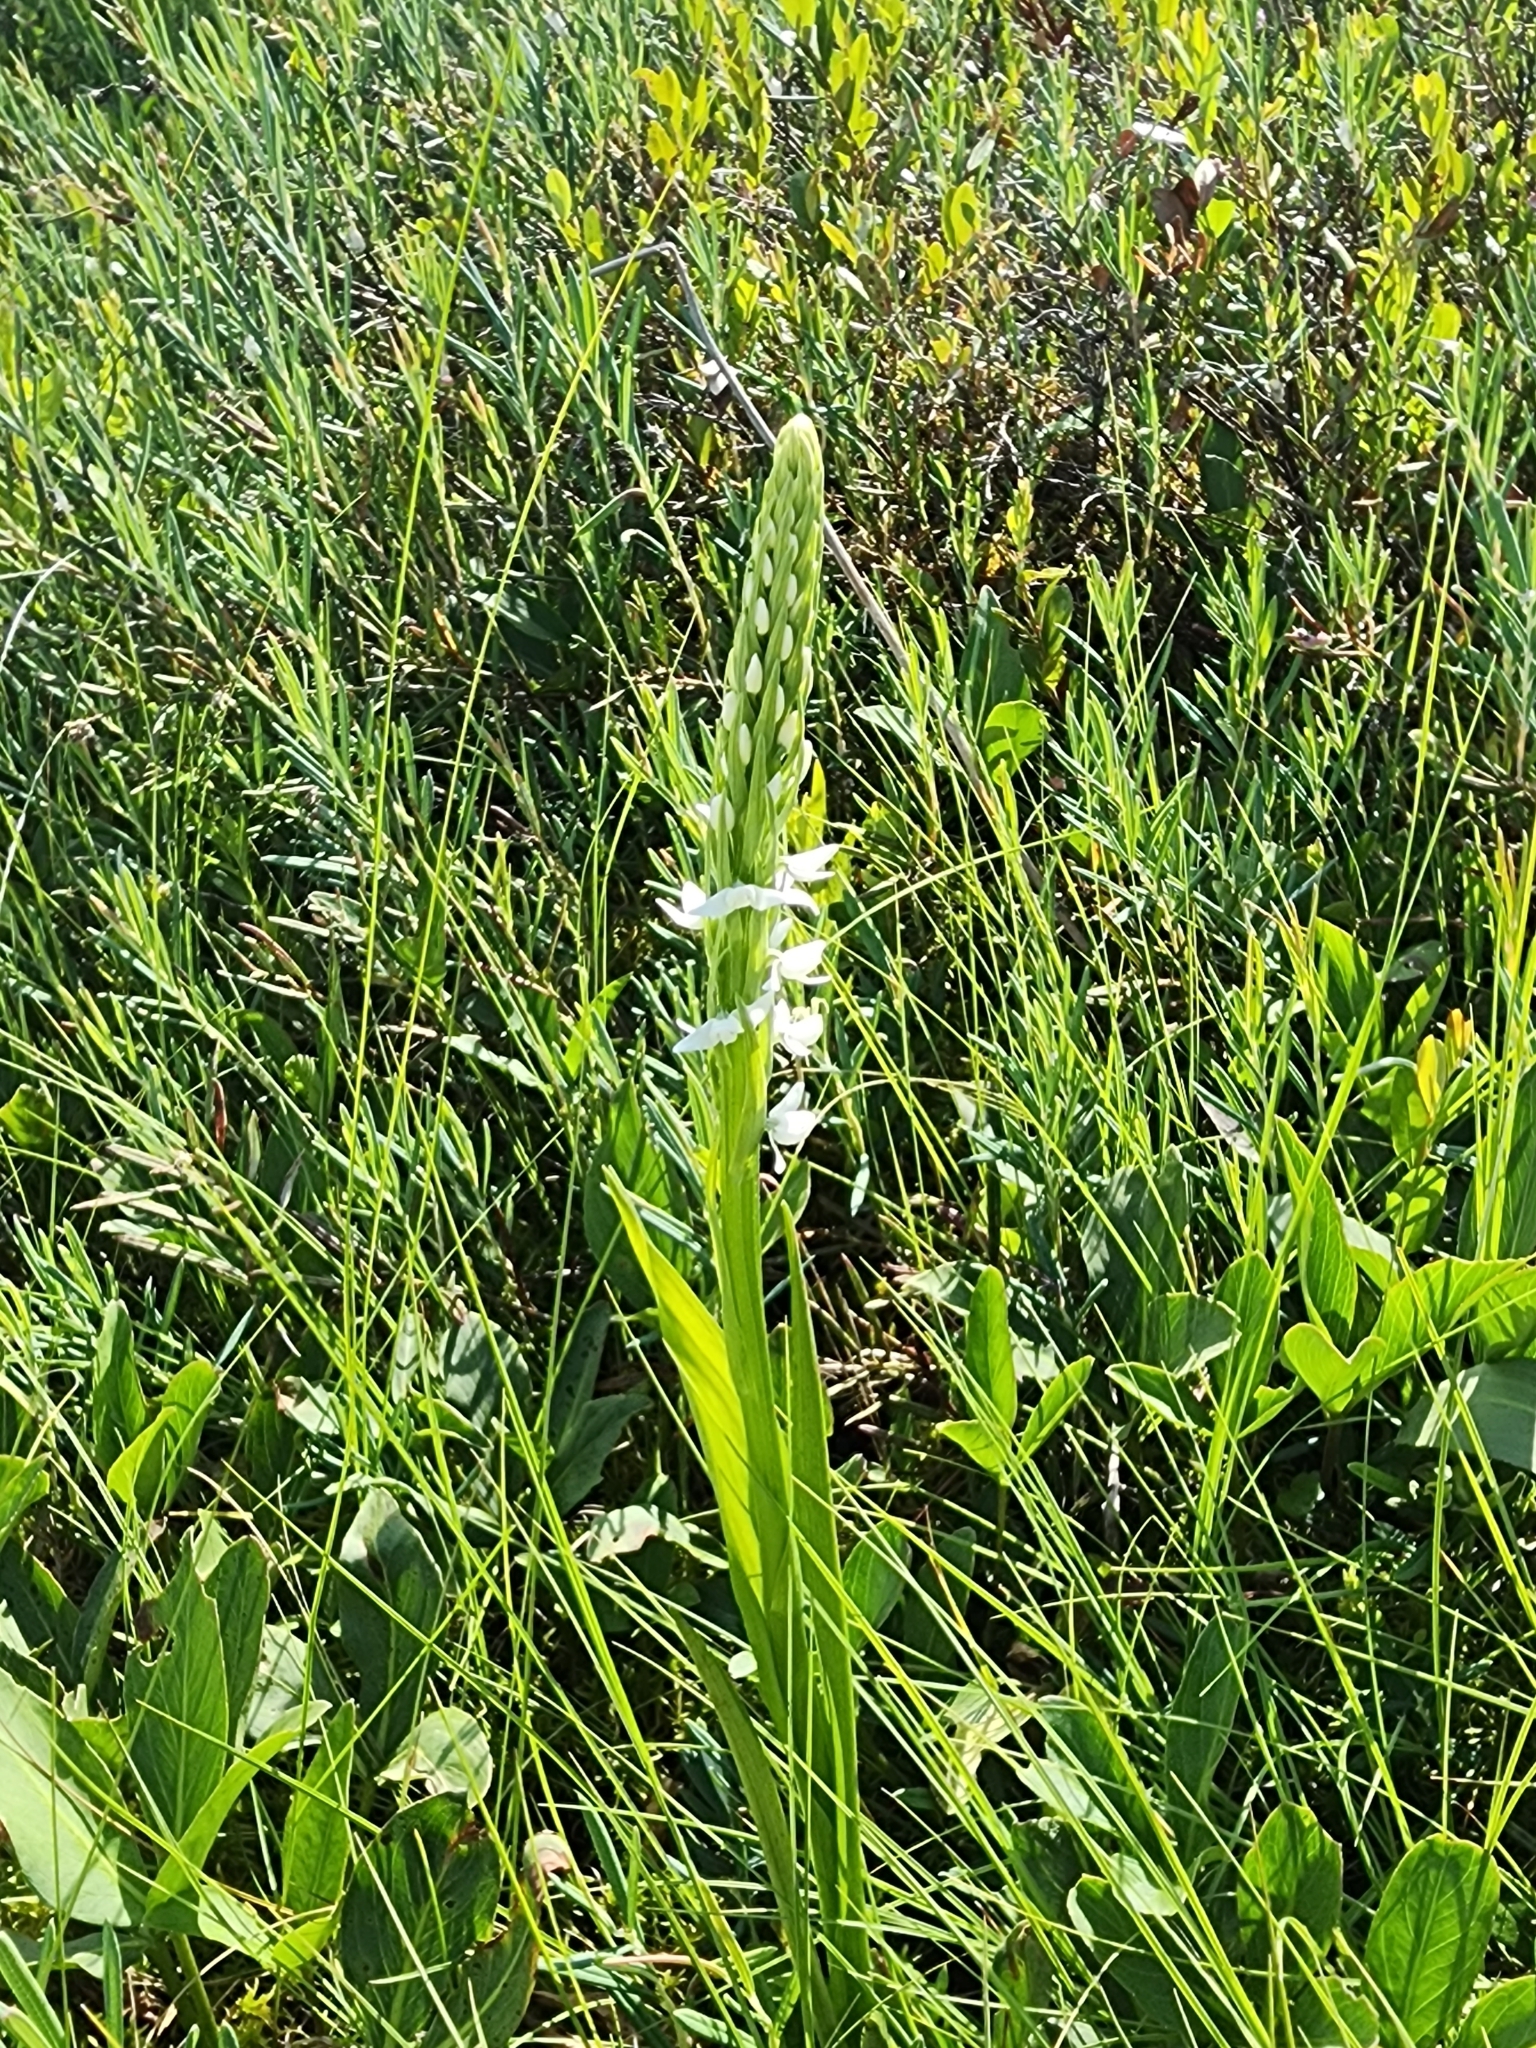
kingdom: Plantae
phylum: Tracheophyta
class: Liliopsida
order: Asparagales
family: Orchidaceae
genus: Platanthera
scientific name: Platanthera dilatata
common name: Bog candles
